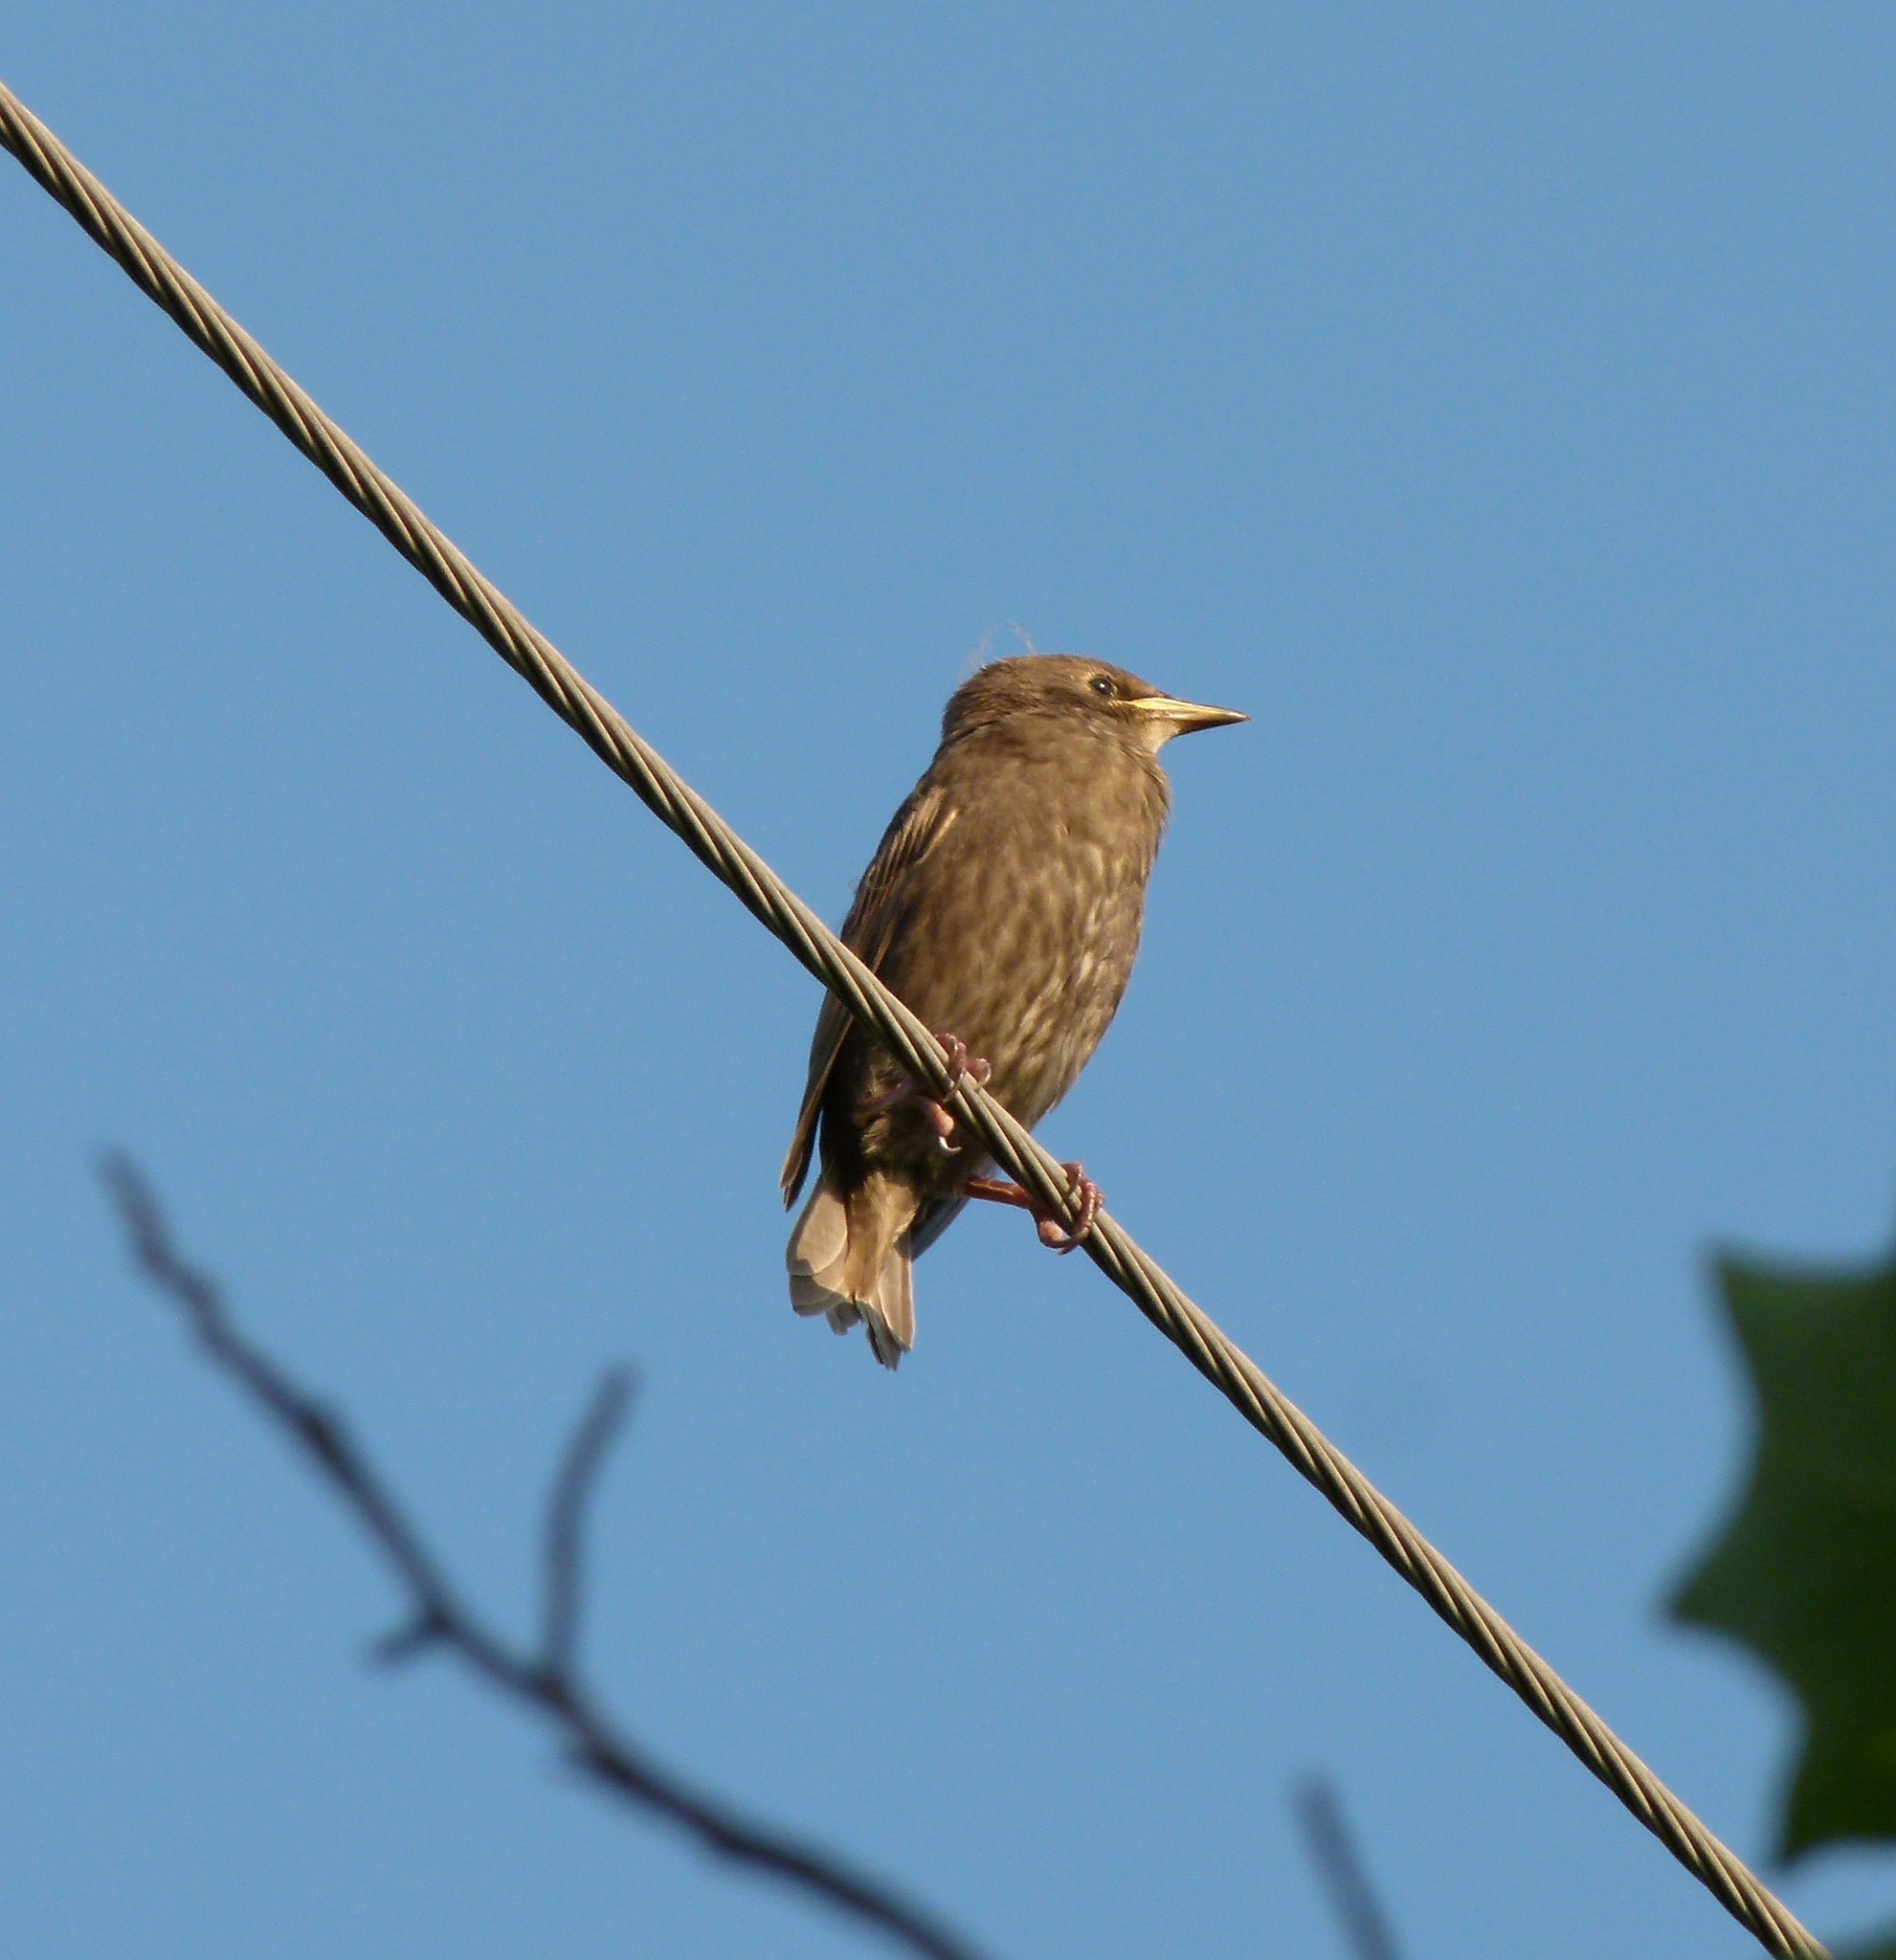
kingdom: Animalia
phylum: Chordata
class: Aves
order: Passeriformes
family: Sturnidae
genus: Sturnus
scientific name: Sturnus vulgaris
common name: Common starling
